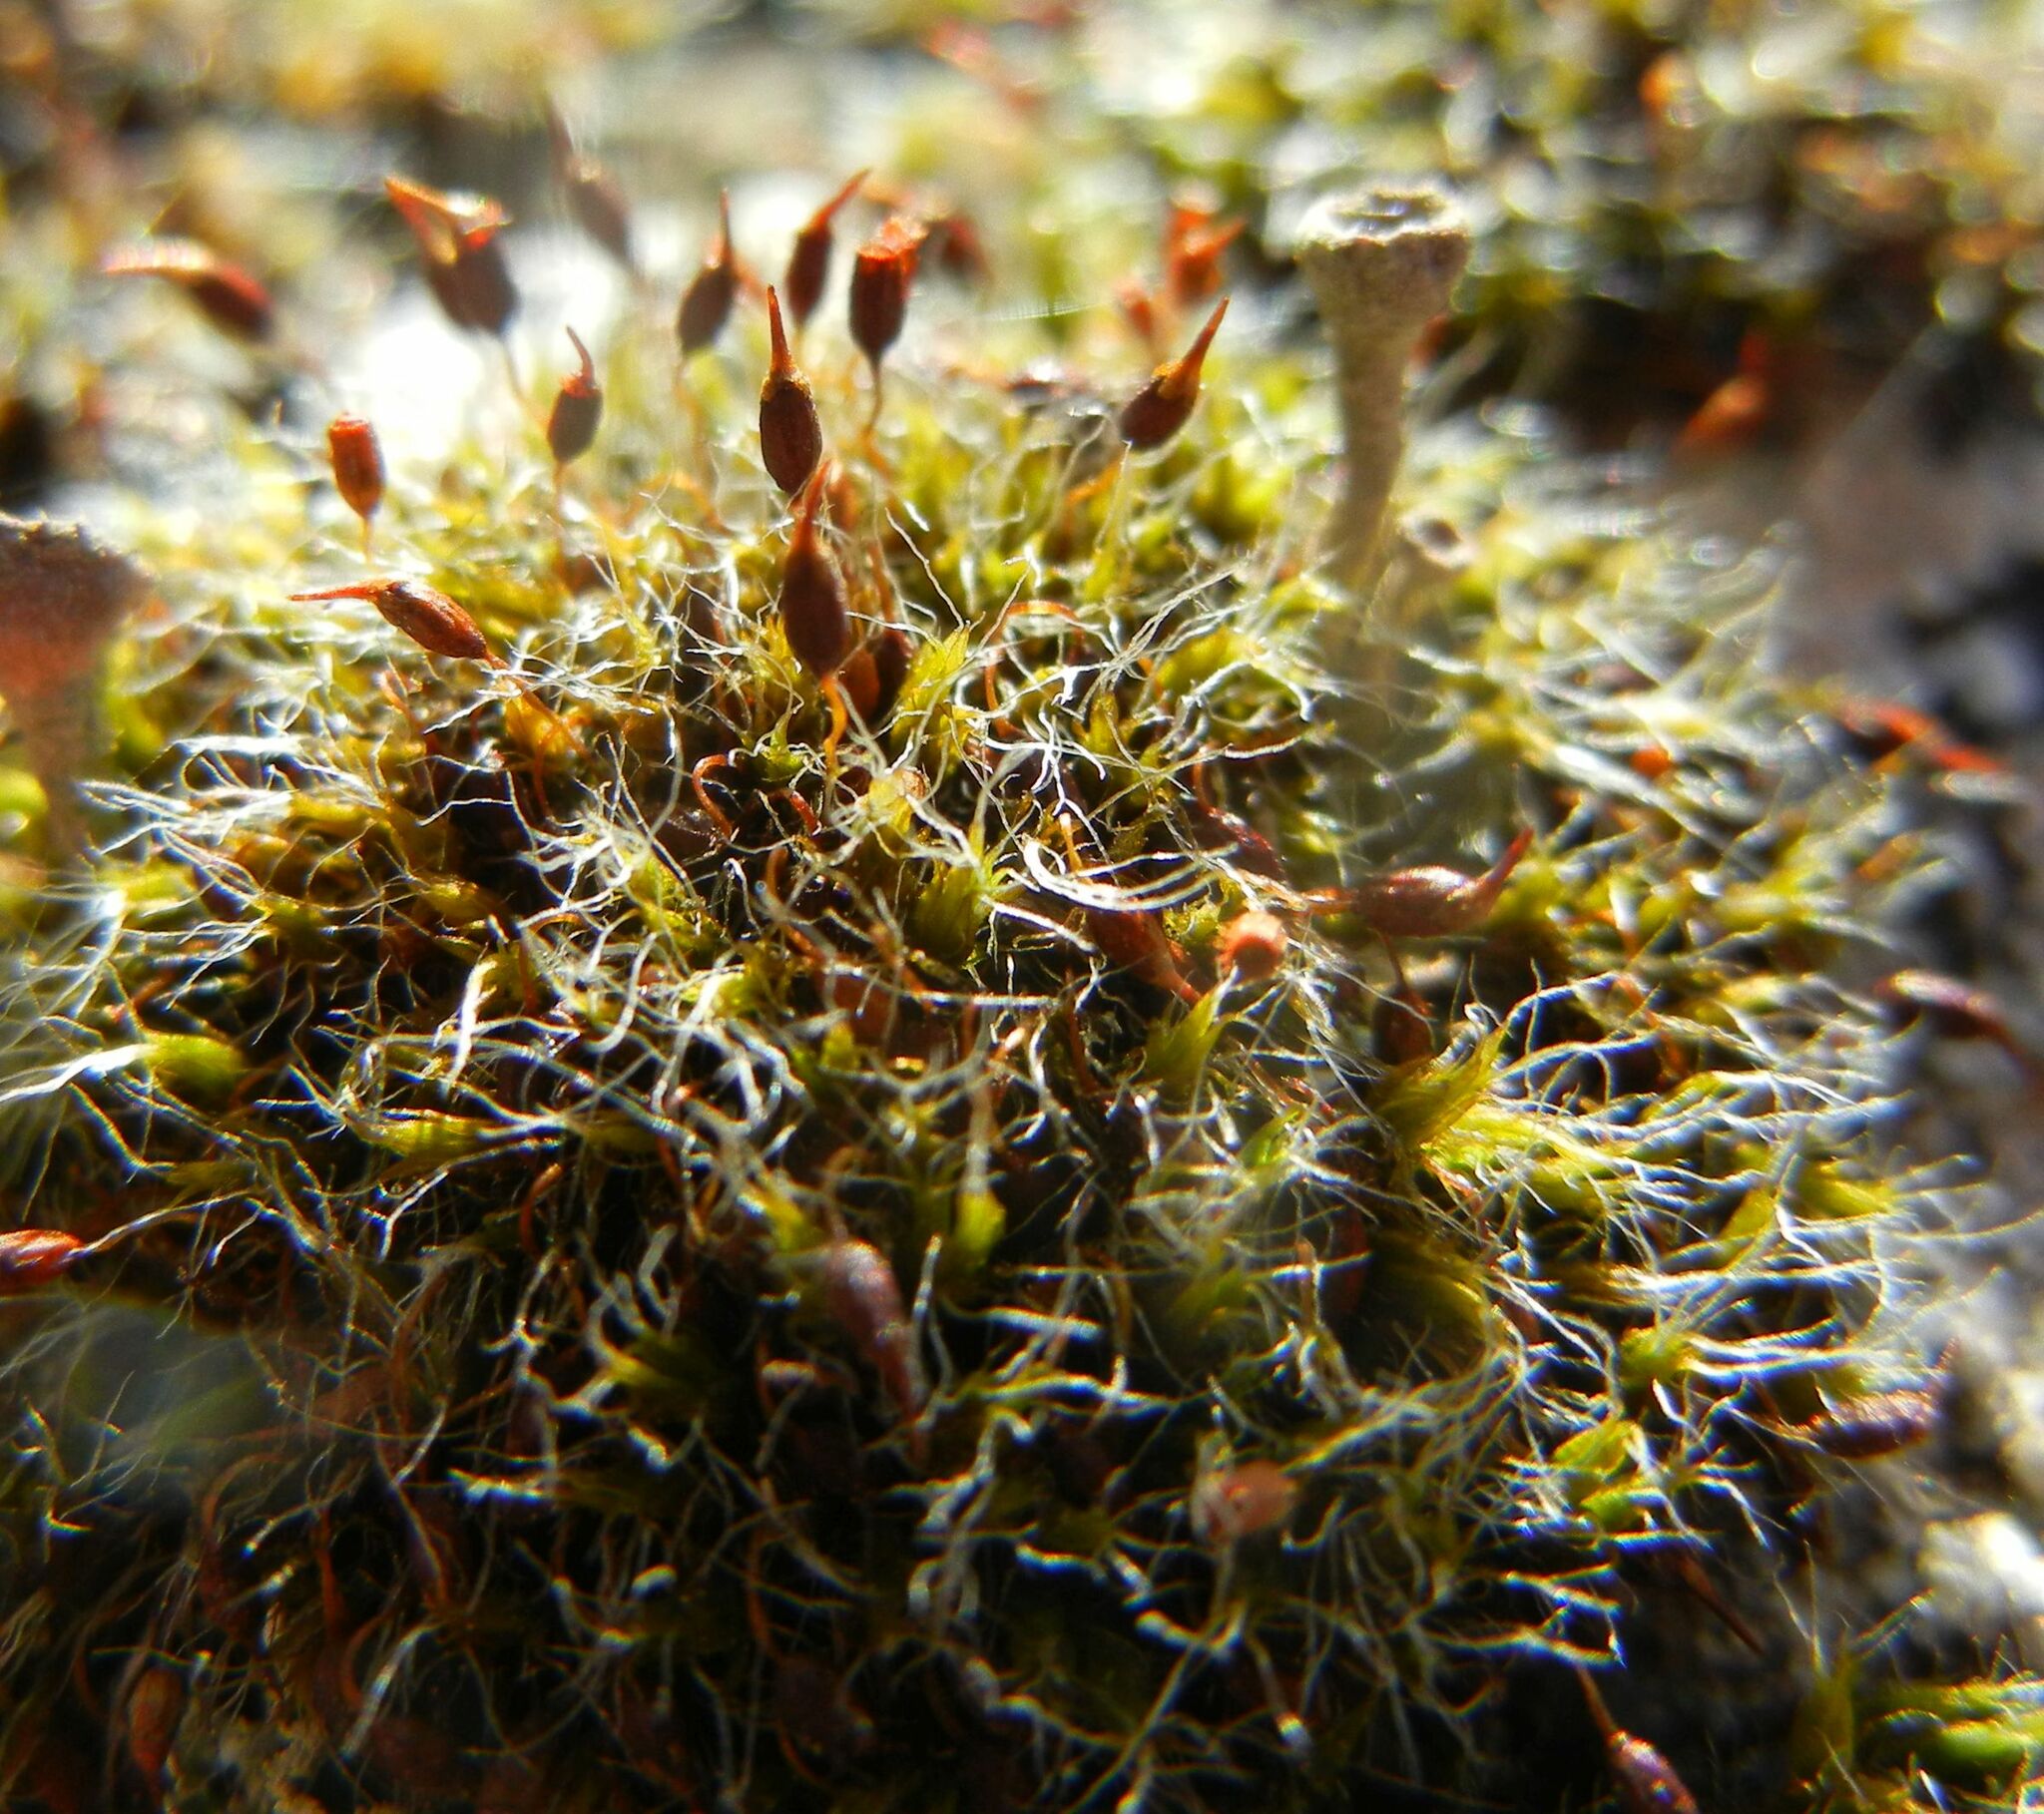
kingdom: Plantae
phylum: Bryophyta
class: Bryopsida
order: Grimmiales
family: Grimmiaceae
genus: Grimmia
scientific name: Grimmia pulvinata
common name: Grey-cushioned grimmia
